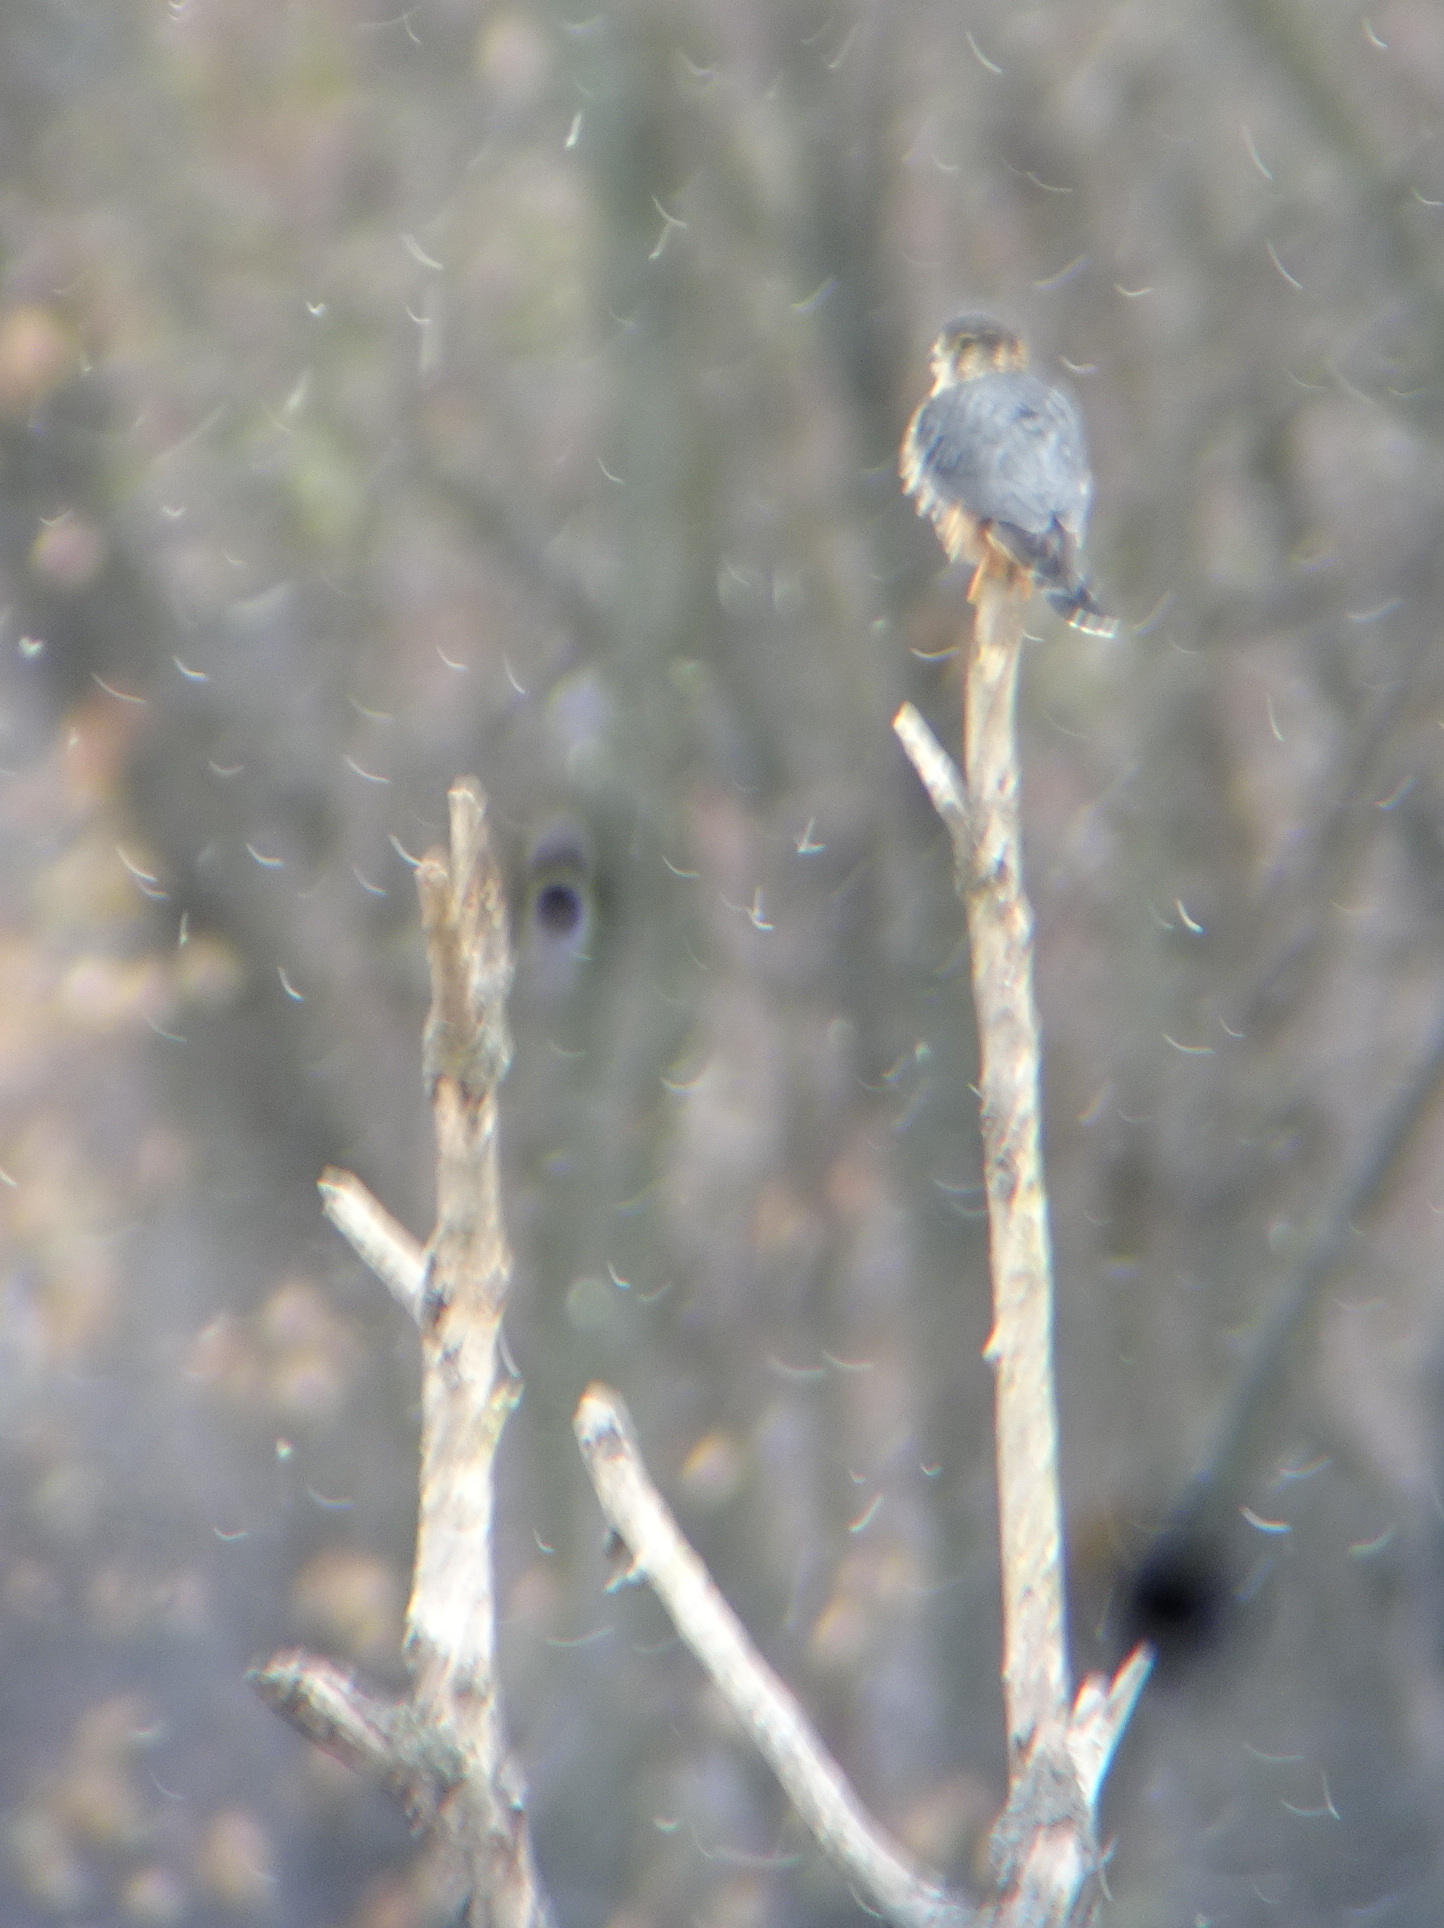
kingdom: Animalia
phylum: Chordata
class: Aves
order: Falconiformes
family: Falconidae
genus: Falco
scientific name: Falco columbarius
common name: Merlin
